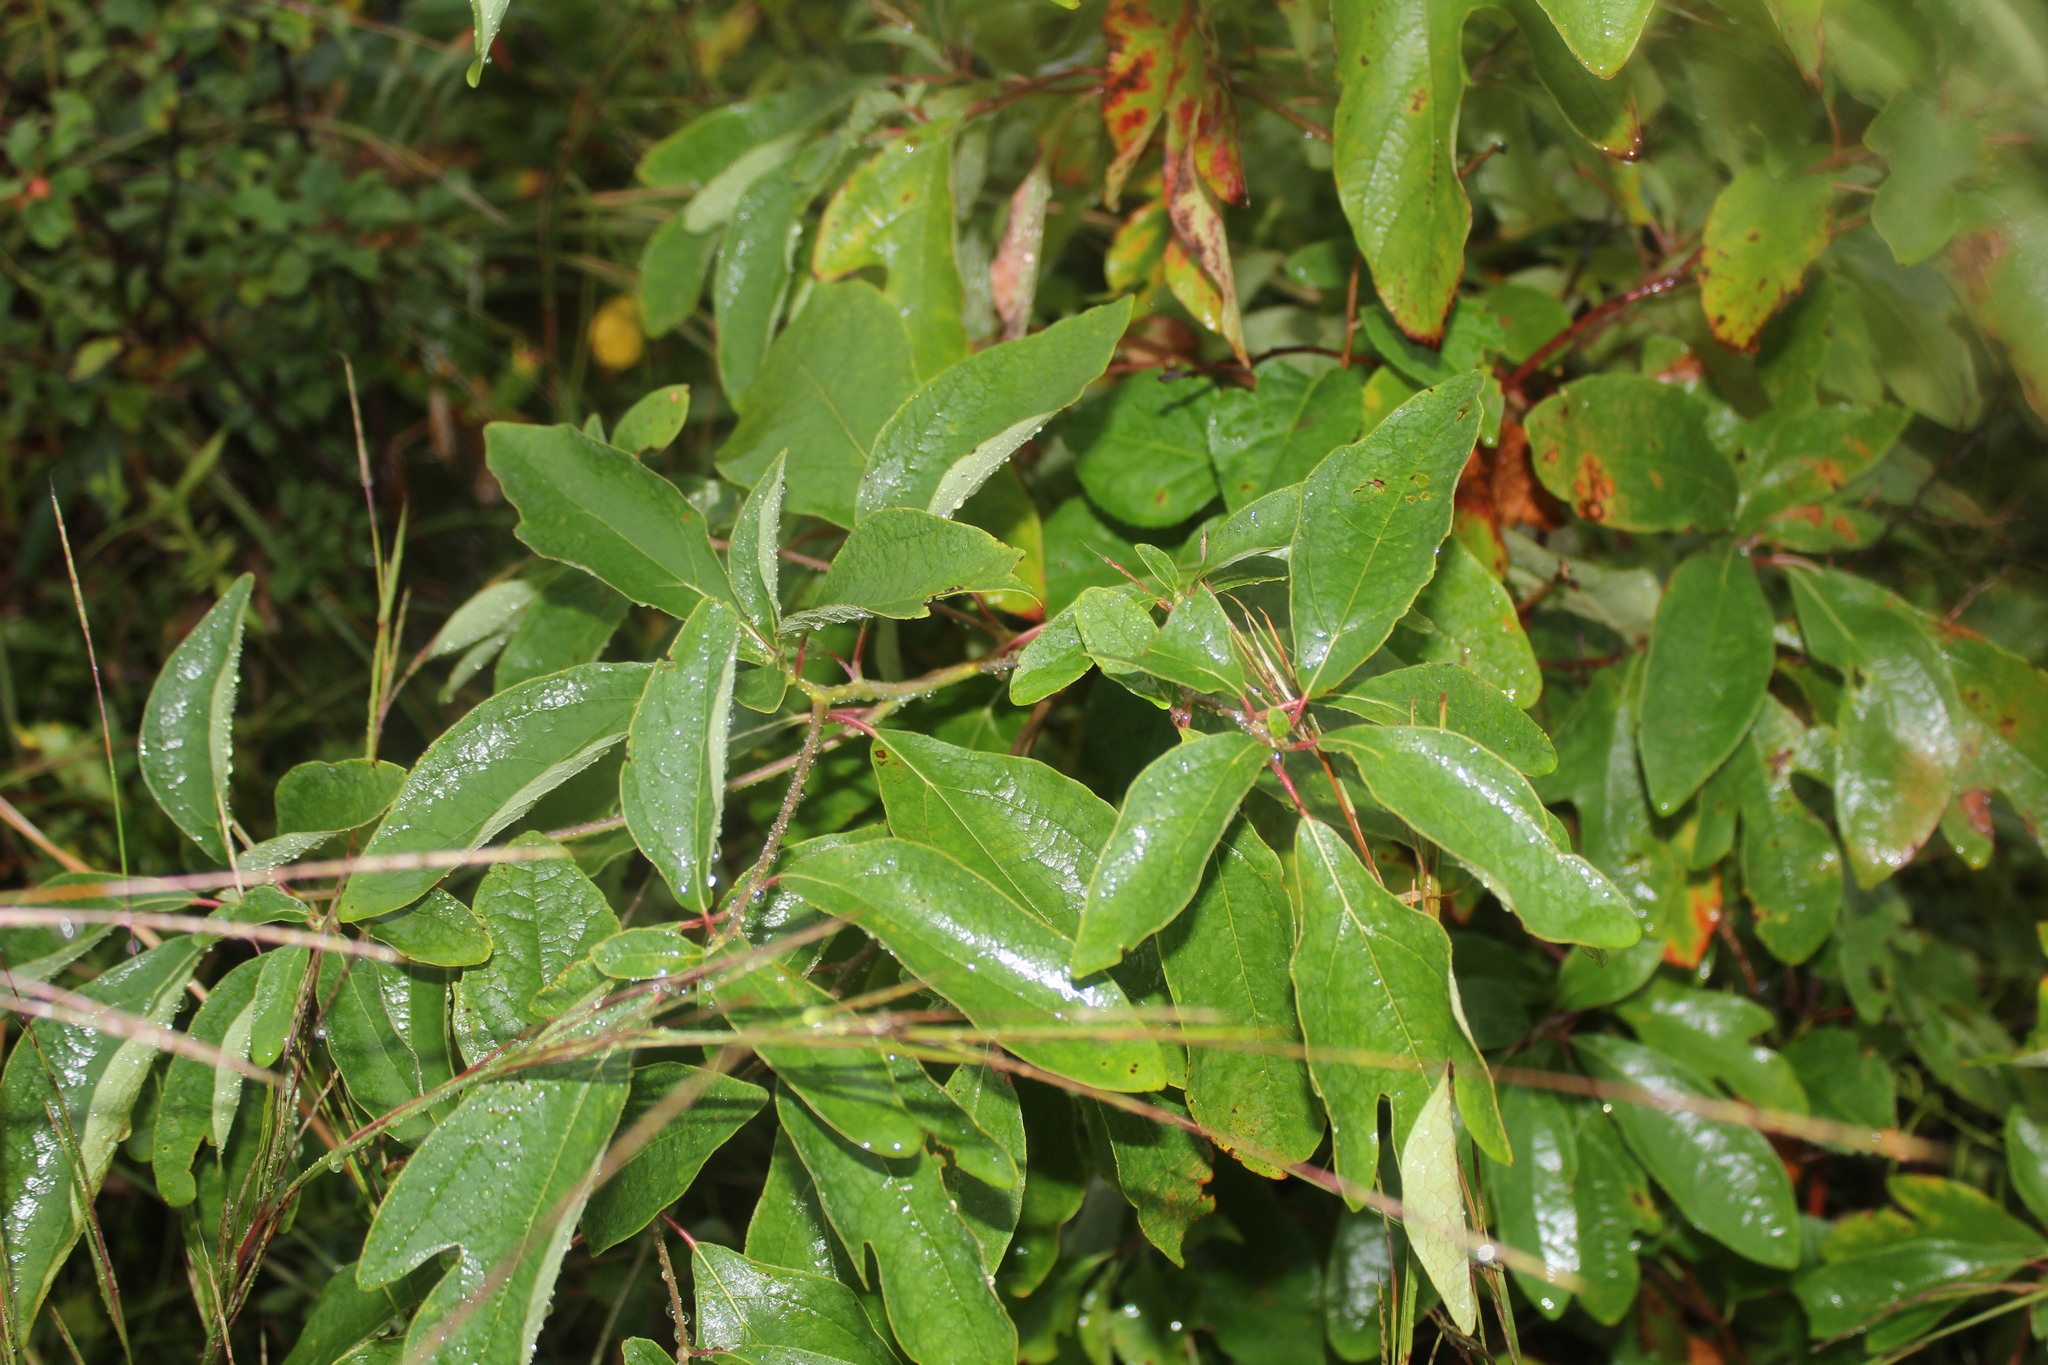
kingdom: Plantae
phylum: Tracheophyta
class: Magnoliopsida
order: Laurales
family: Lauraceae
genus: Sassafras
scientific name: Sassafras albidum
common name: Sassafras
